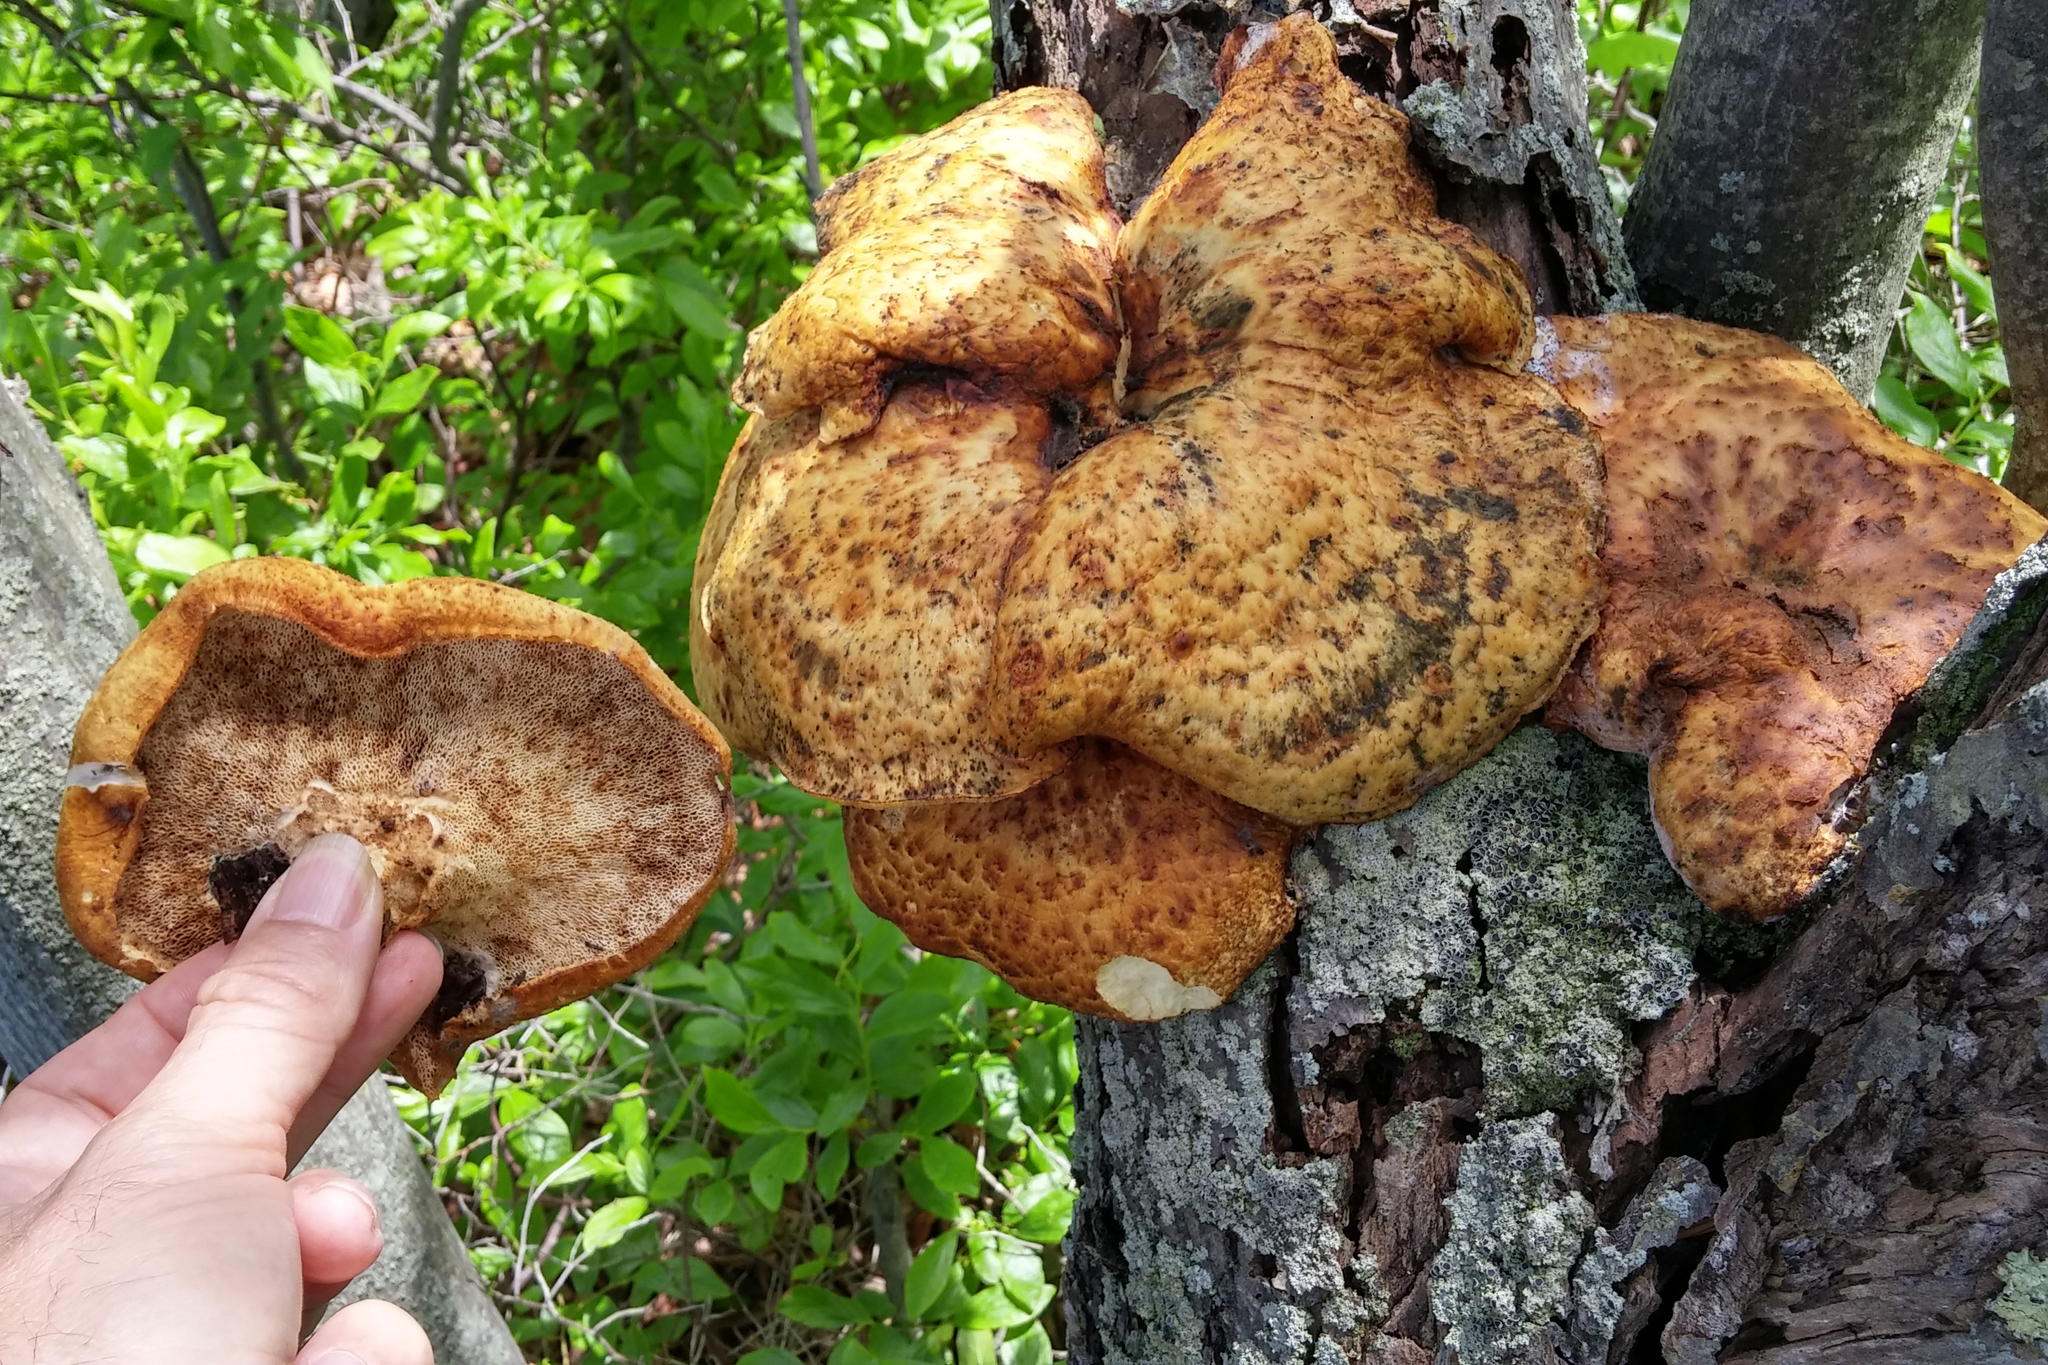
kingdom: Fungi
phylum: Basidiomycota
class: Agaricomycetes
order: Polyporales
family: Polyporaceae
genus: Cerioporus
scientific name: Cerioporus squamosus
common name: Dryad's saddle
